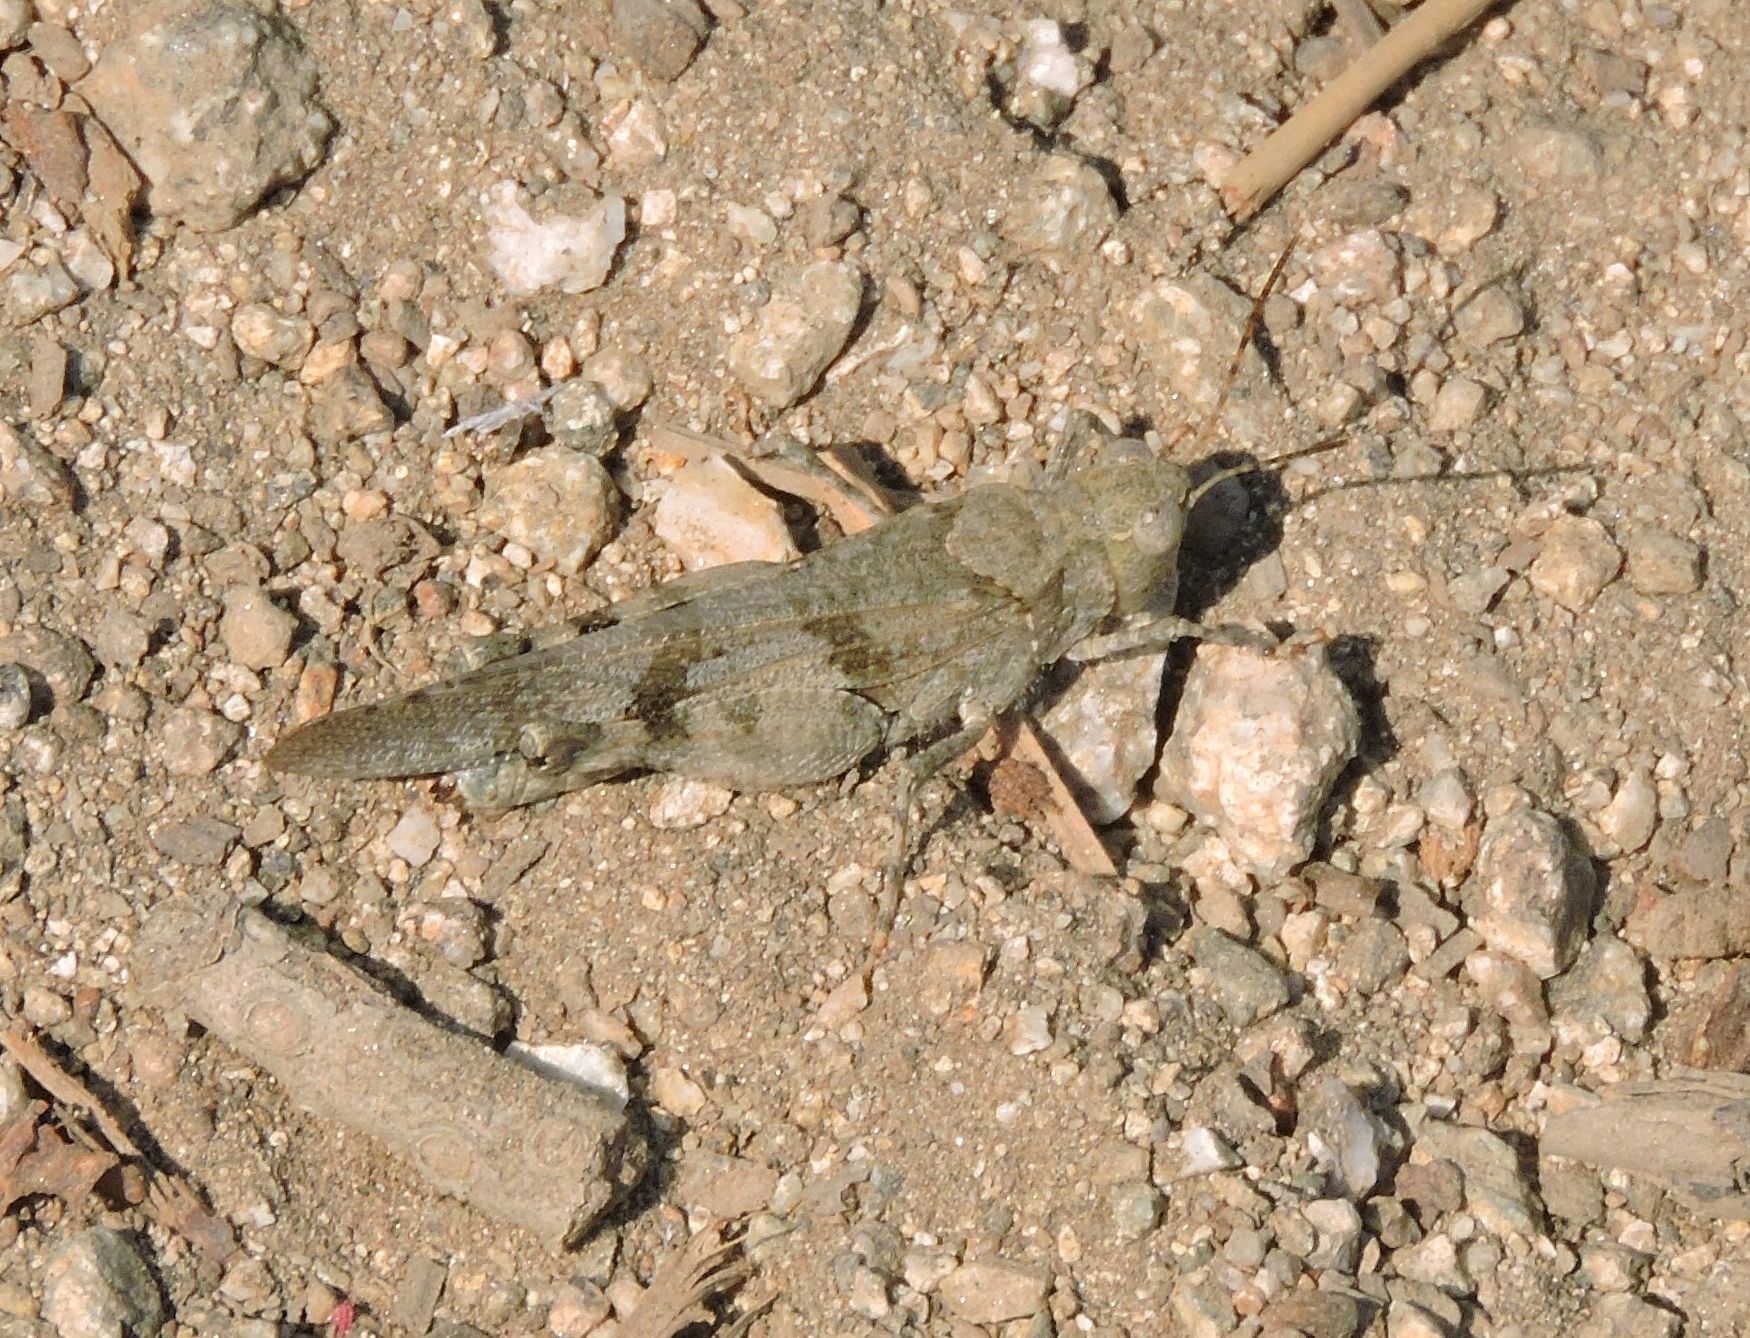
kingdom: Animalia
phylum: Arthropoda
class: Insecta
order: Orthoptera
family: Acrididae
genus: Trimerotropis
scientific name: Trimerotropis fontana
